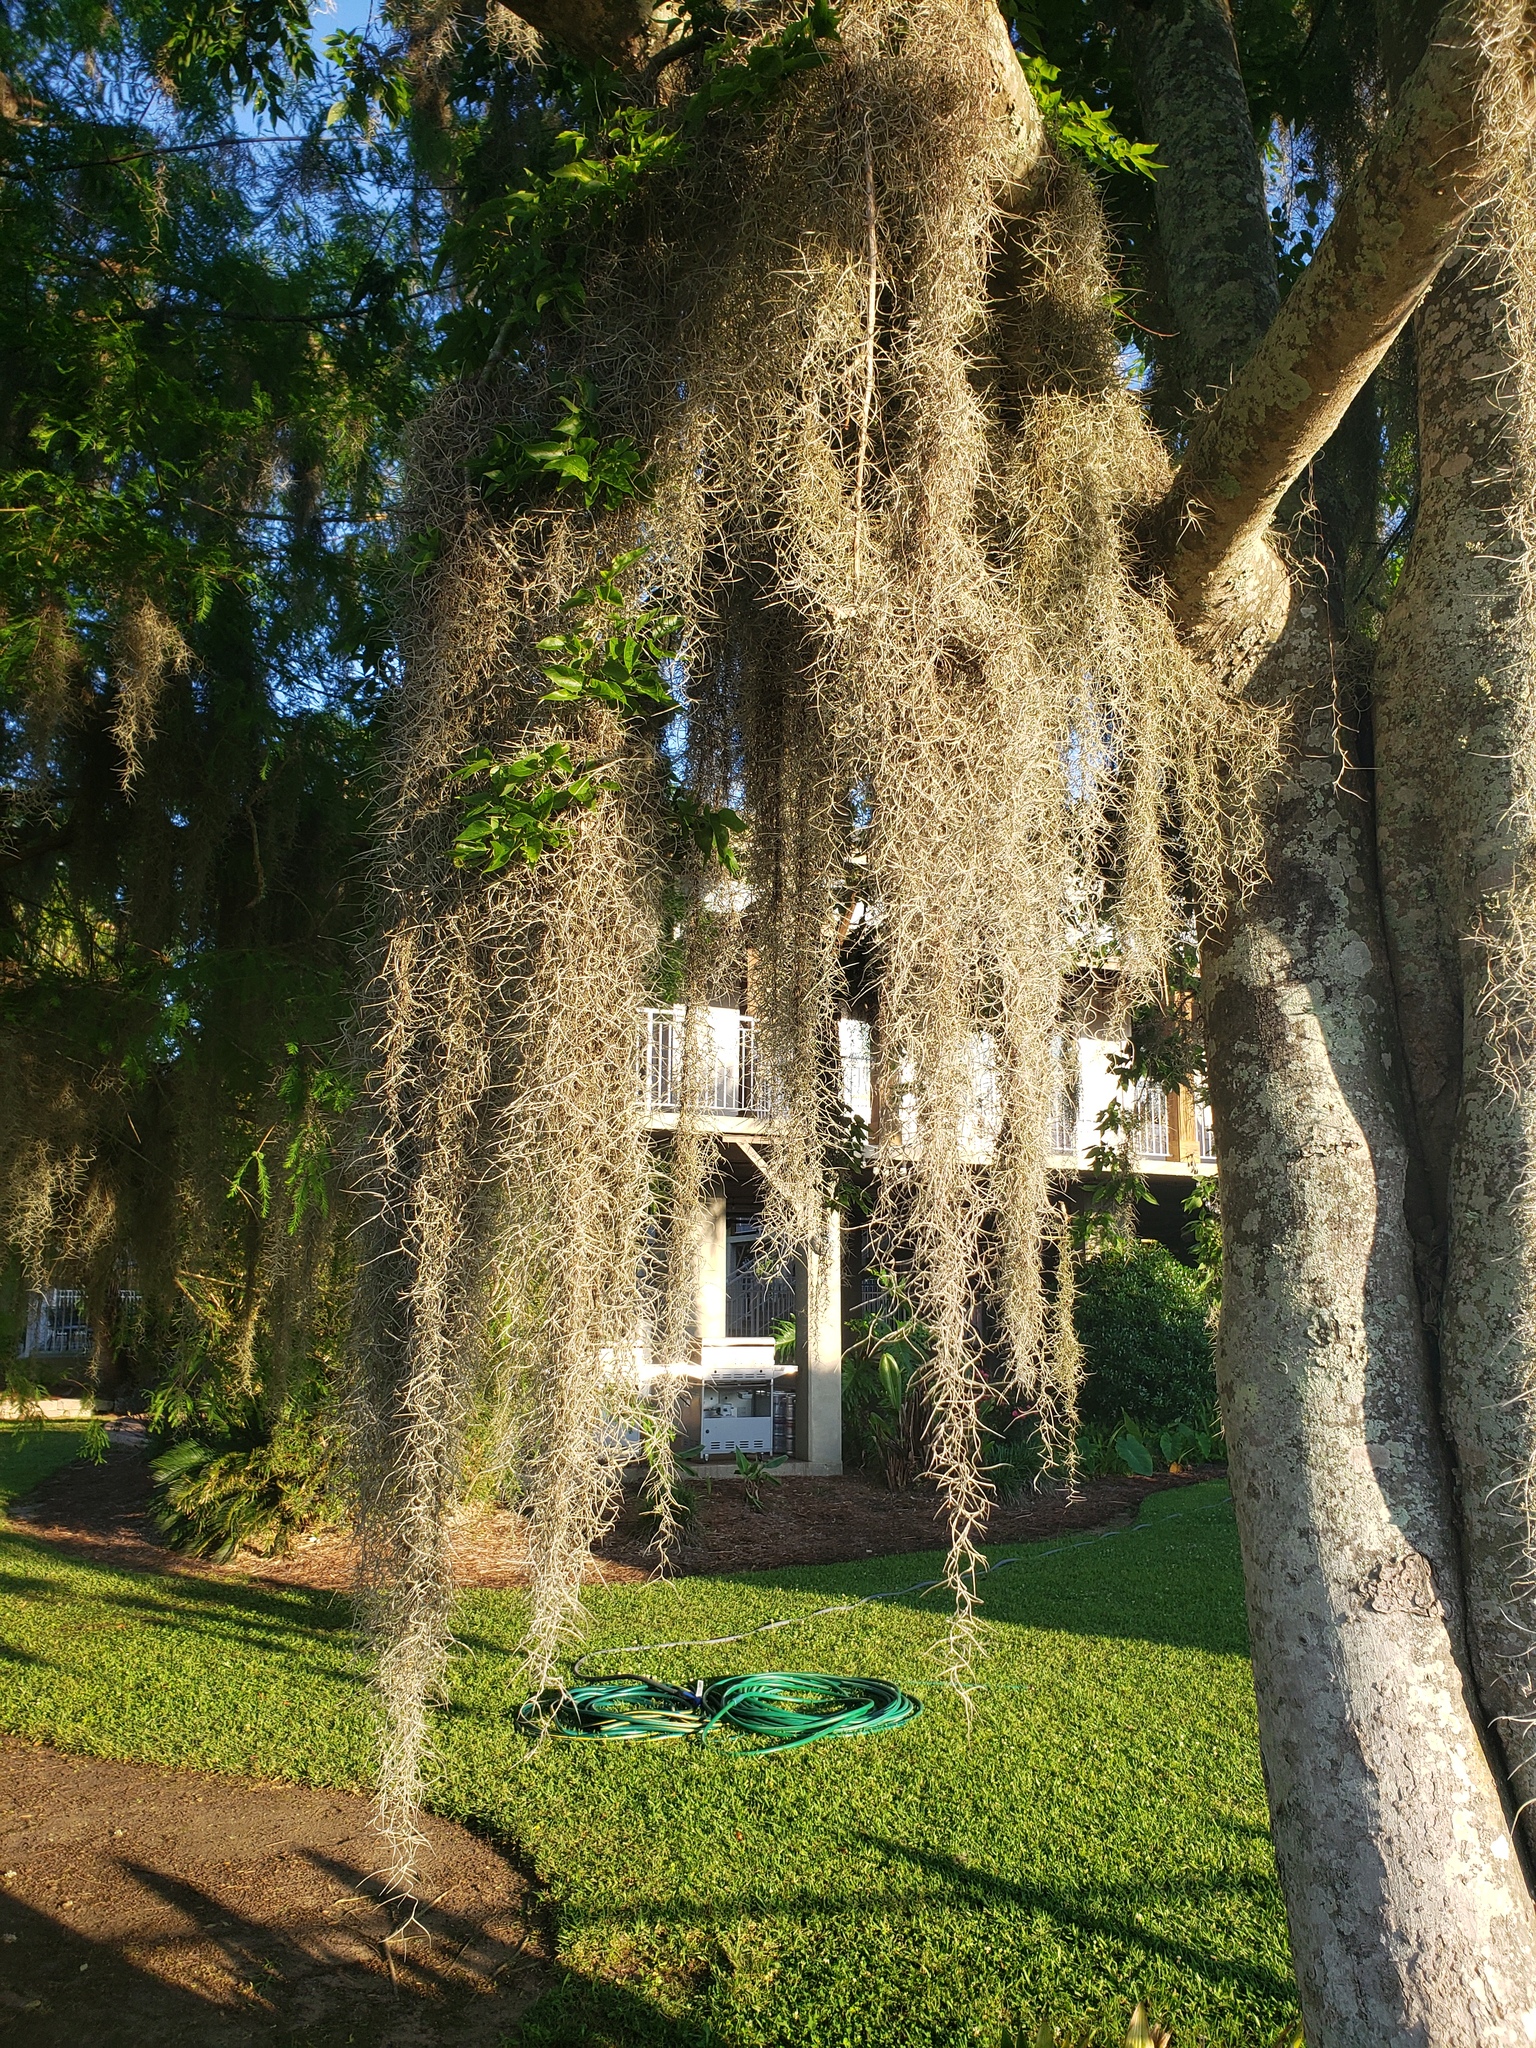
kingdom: Plantae
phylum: Tracheophyta
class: Liliopsida
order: Poales
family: Bromeliaceae
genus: Tillandsia
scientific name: Tillandsia usneoides
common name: Spanish moss
